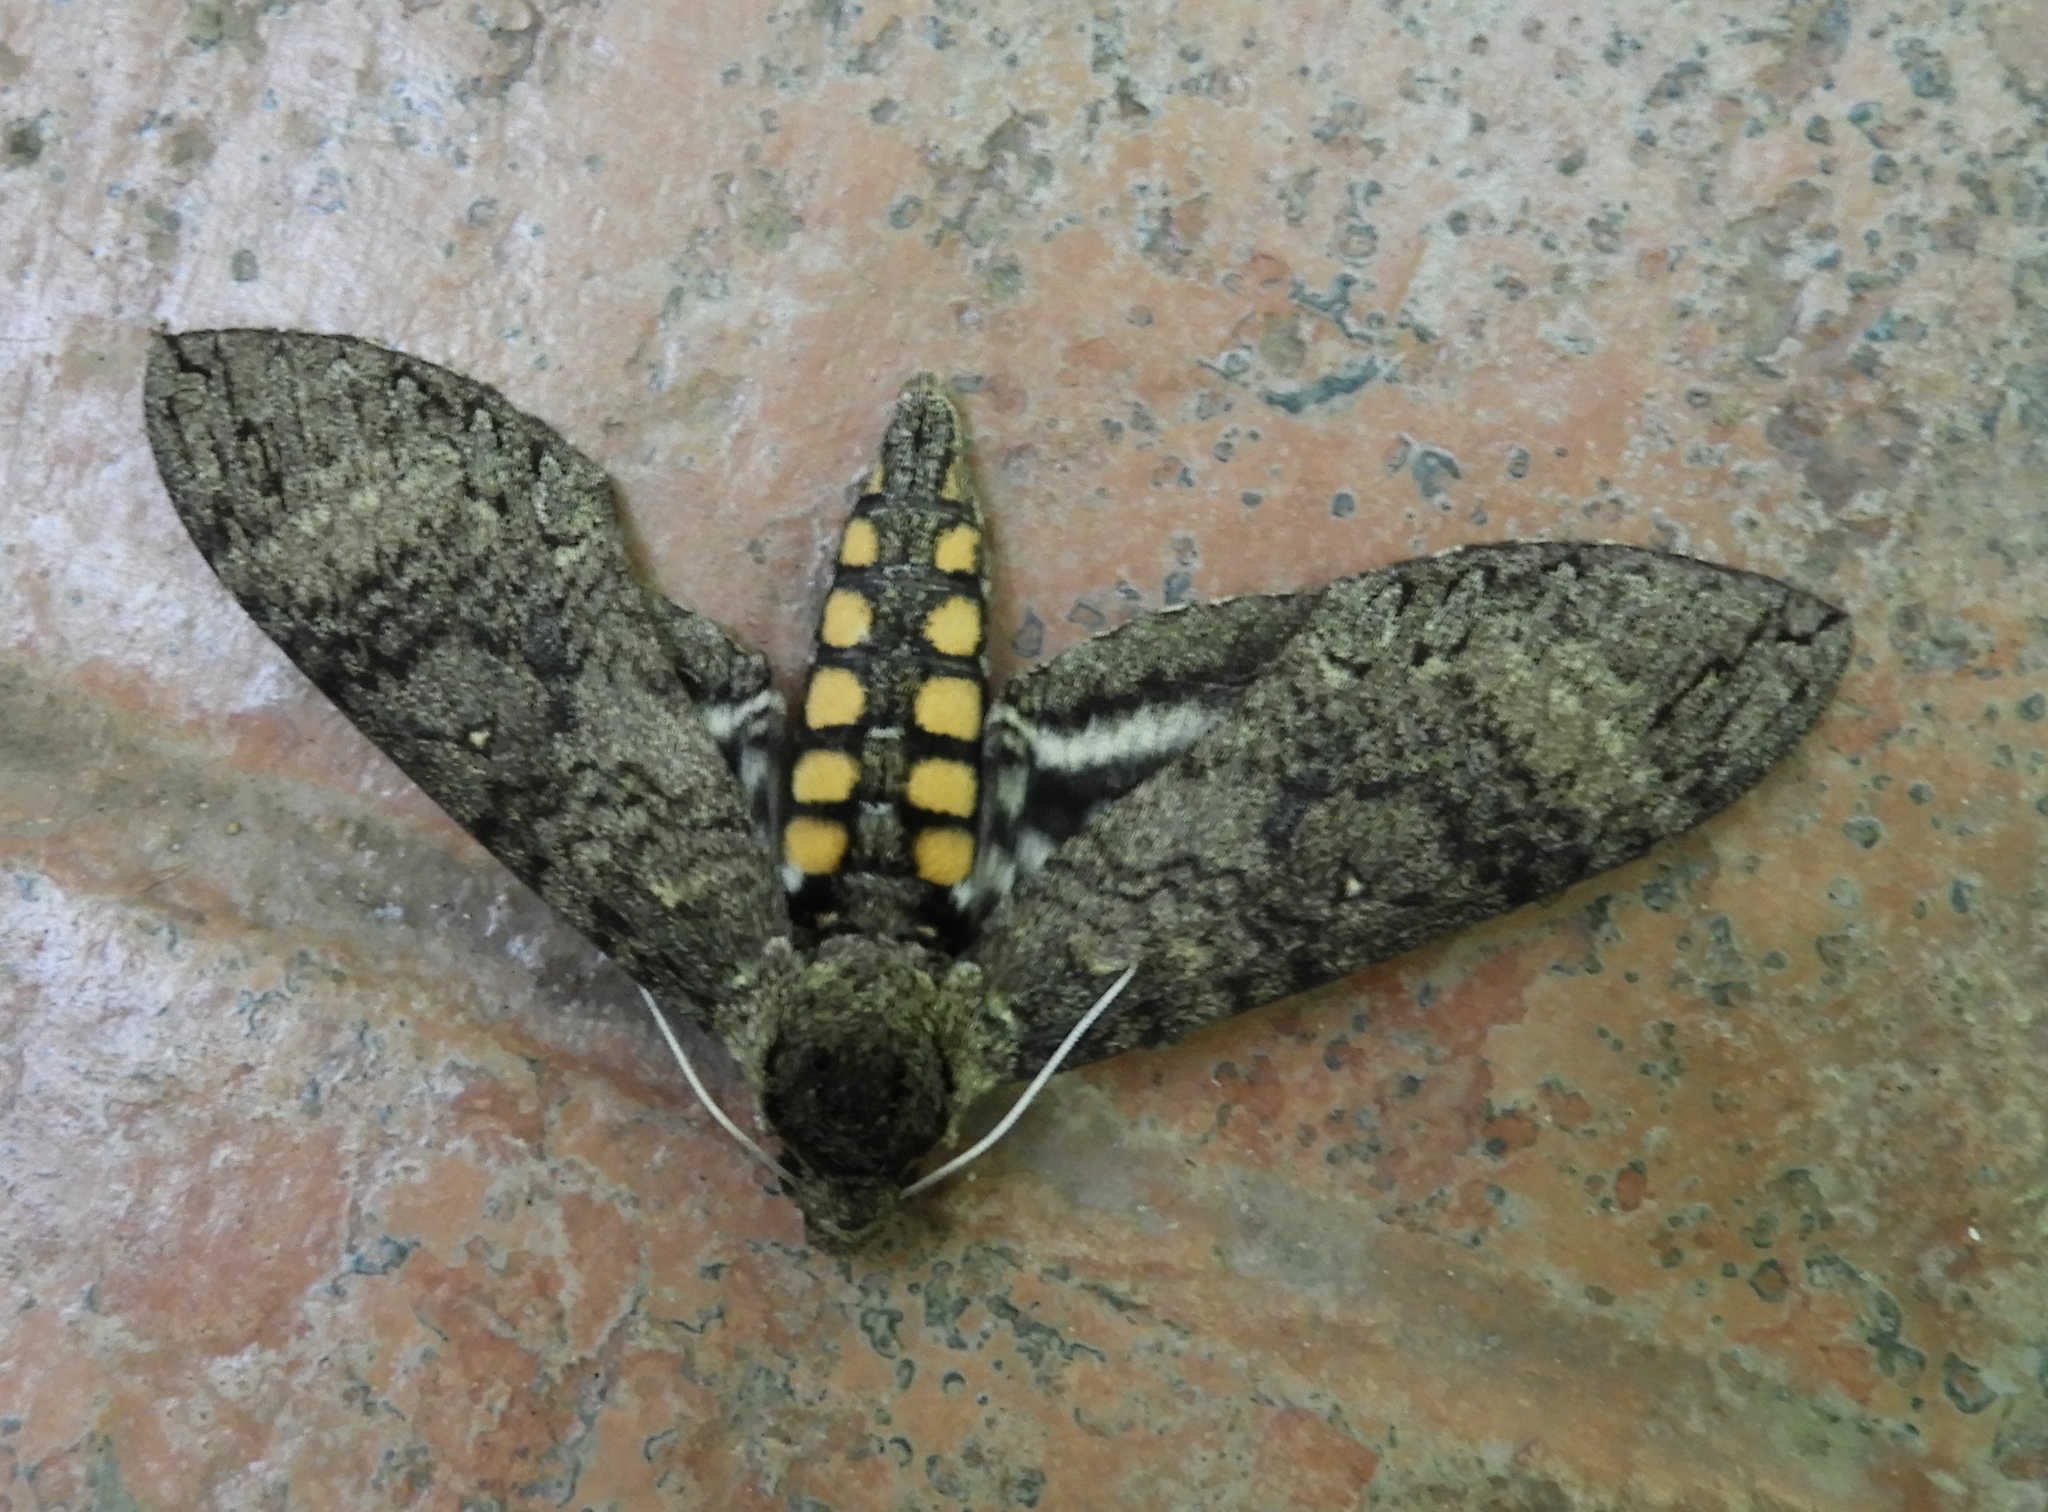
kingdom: Animalia
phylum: Arthropoda
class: Insecta
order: Lepidoptera
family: Sphingidae
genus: Manduca
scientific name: Manduca sexta
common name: Carolina sphinx
